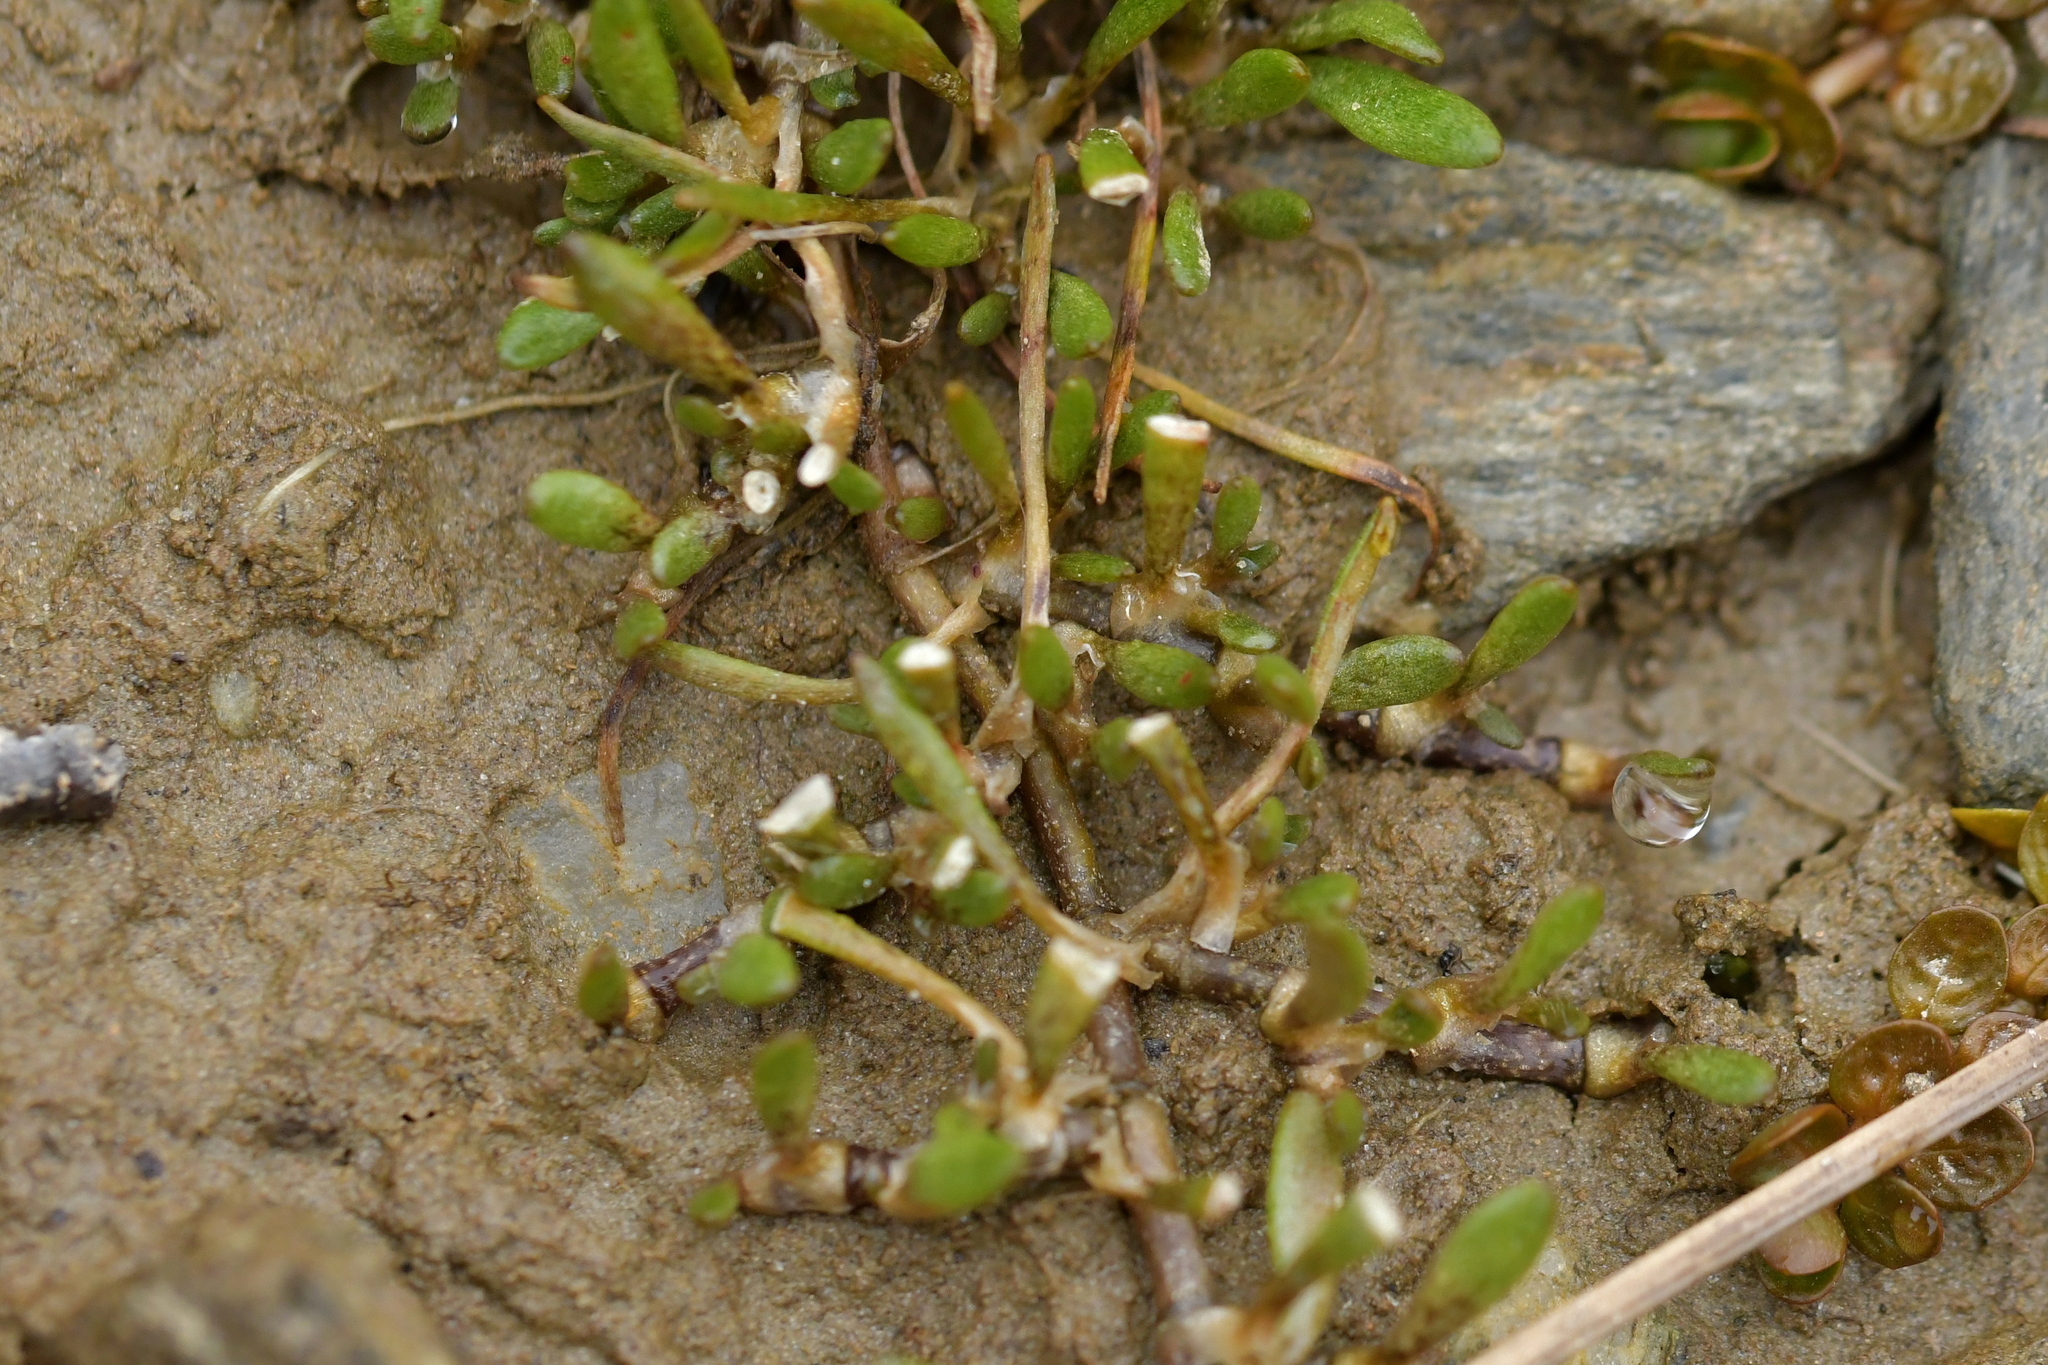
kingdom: Plantae
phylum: Tracheophyta
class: Magnoliopsida
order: Caryophyllales
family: Montiaceae
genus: Montia
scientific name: Montia sessiliflora
